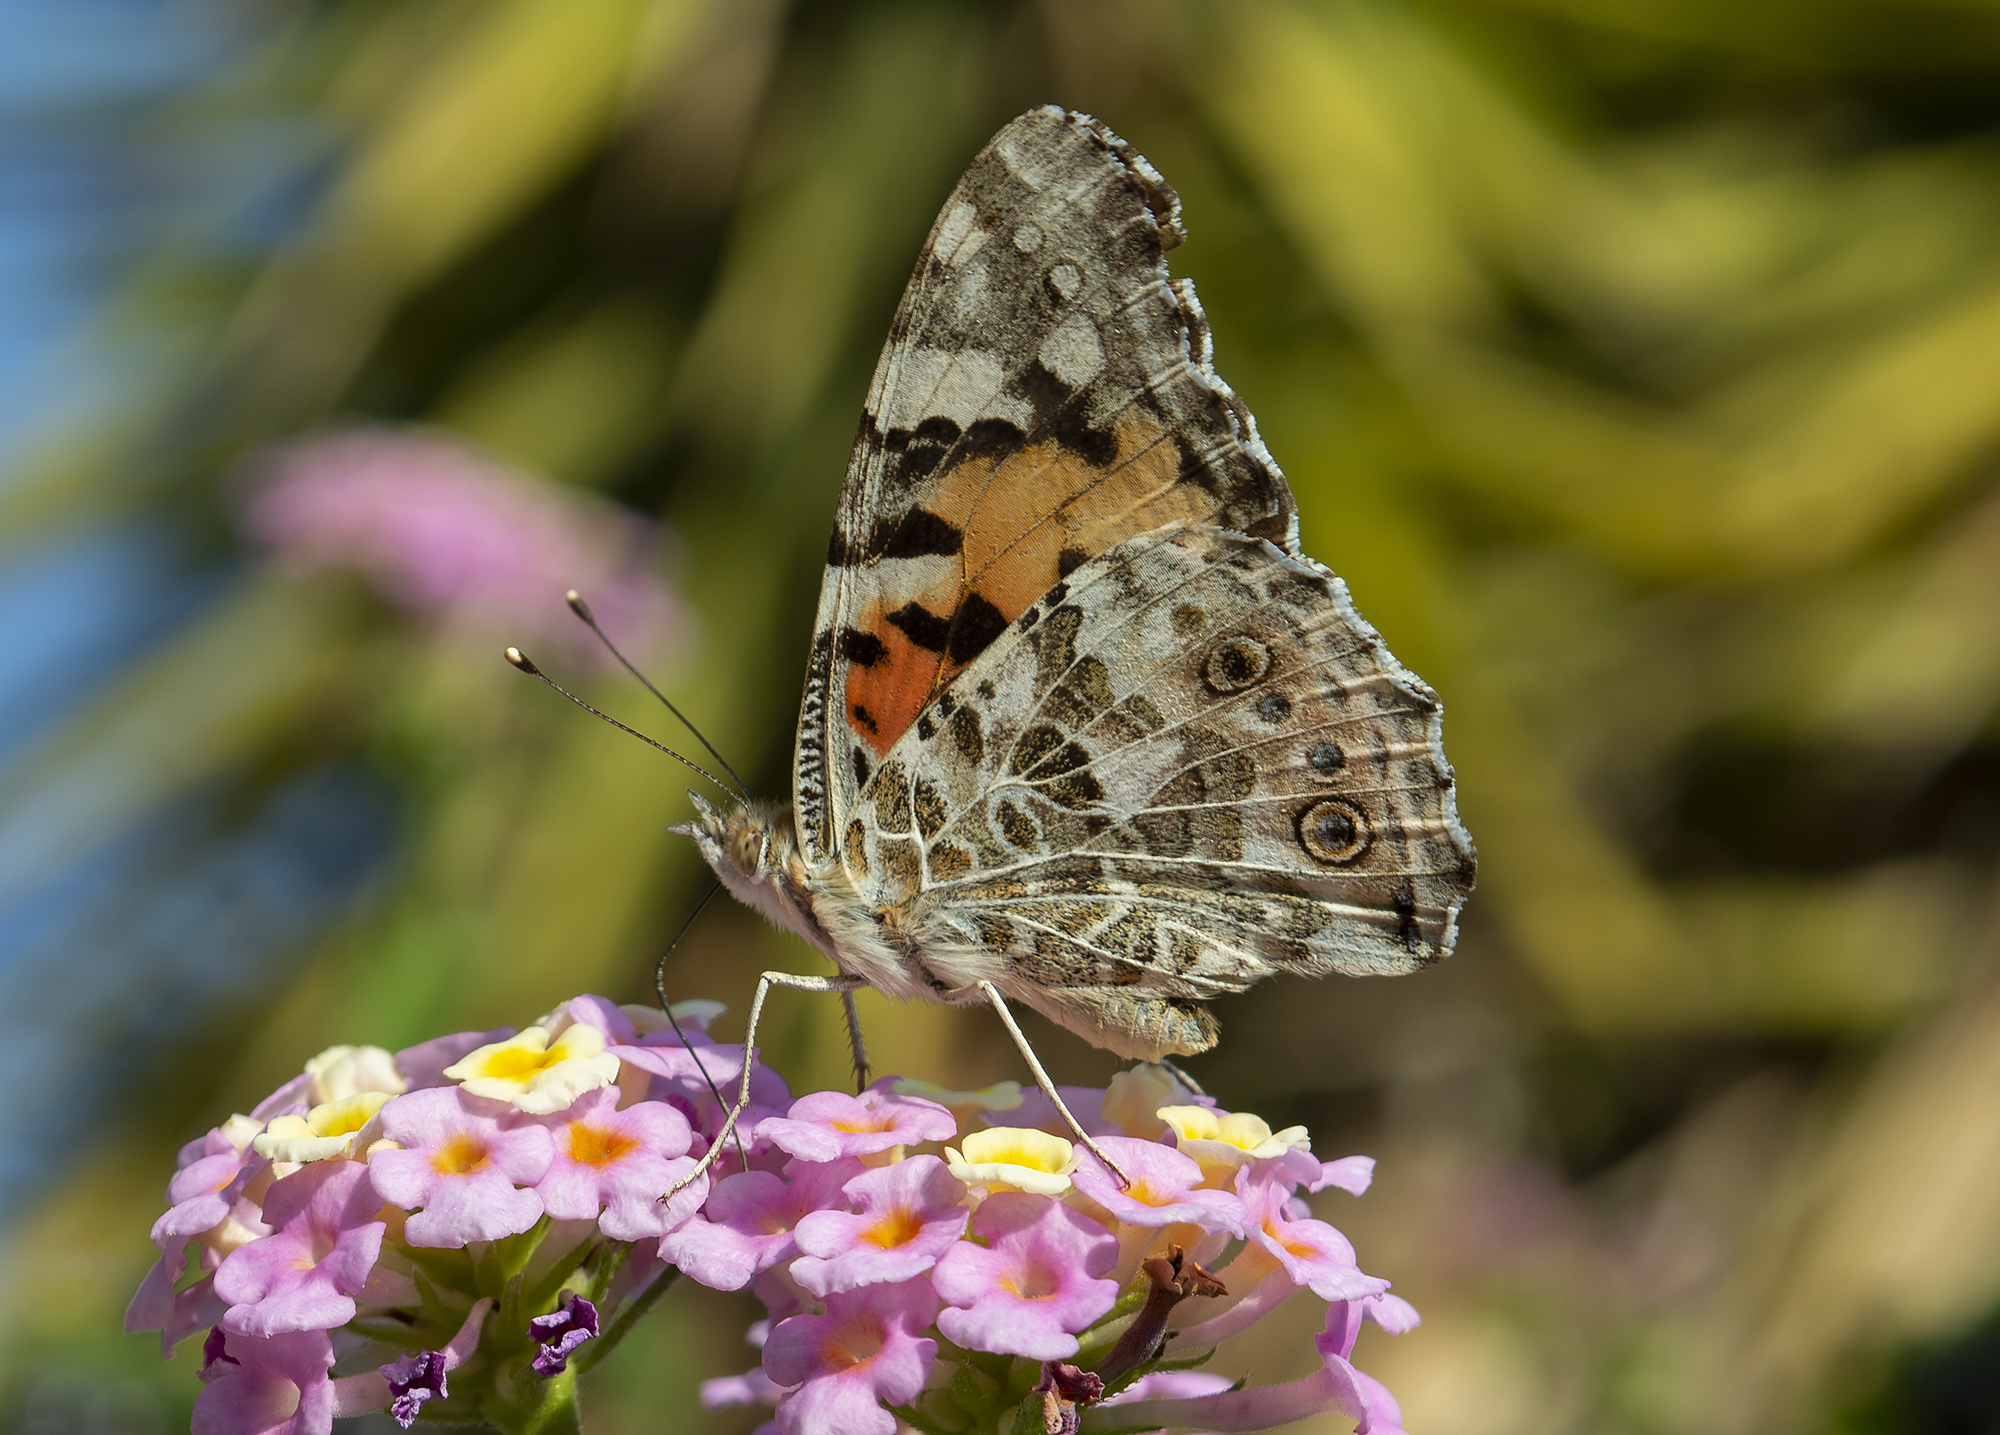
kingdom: Animalia
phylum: Arthropoda
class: Insecta
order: Lepidoptera
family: Nymphalidae
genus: Vanessa
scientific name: Vanessa cardui
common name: Painted lady
